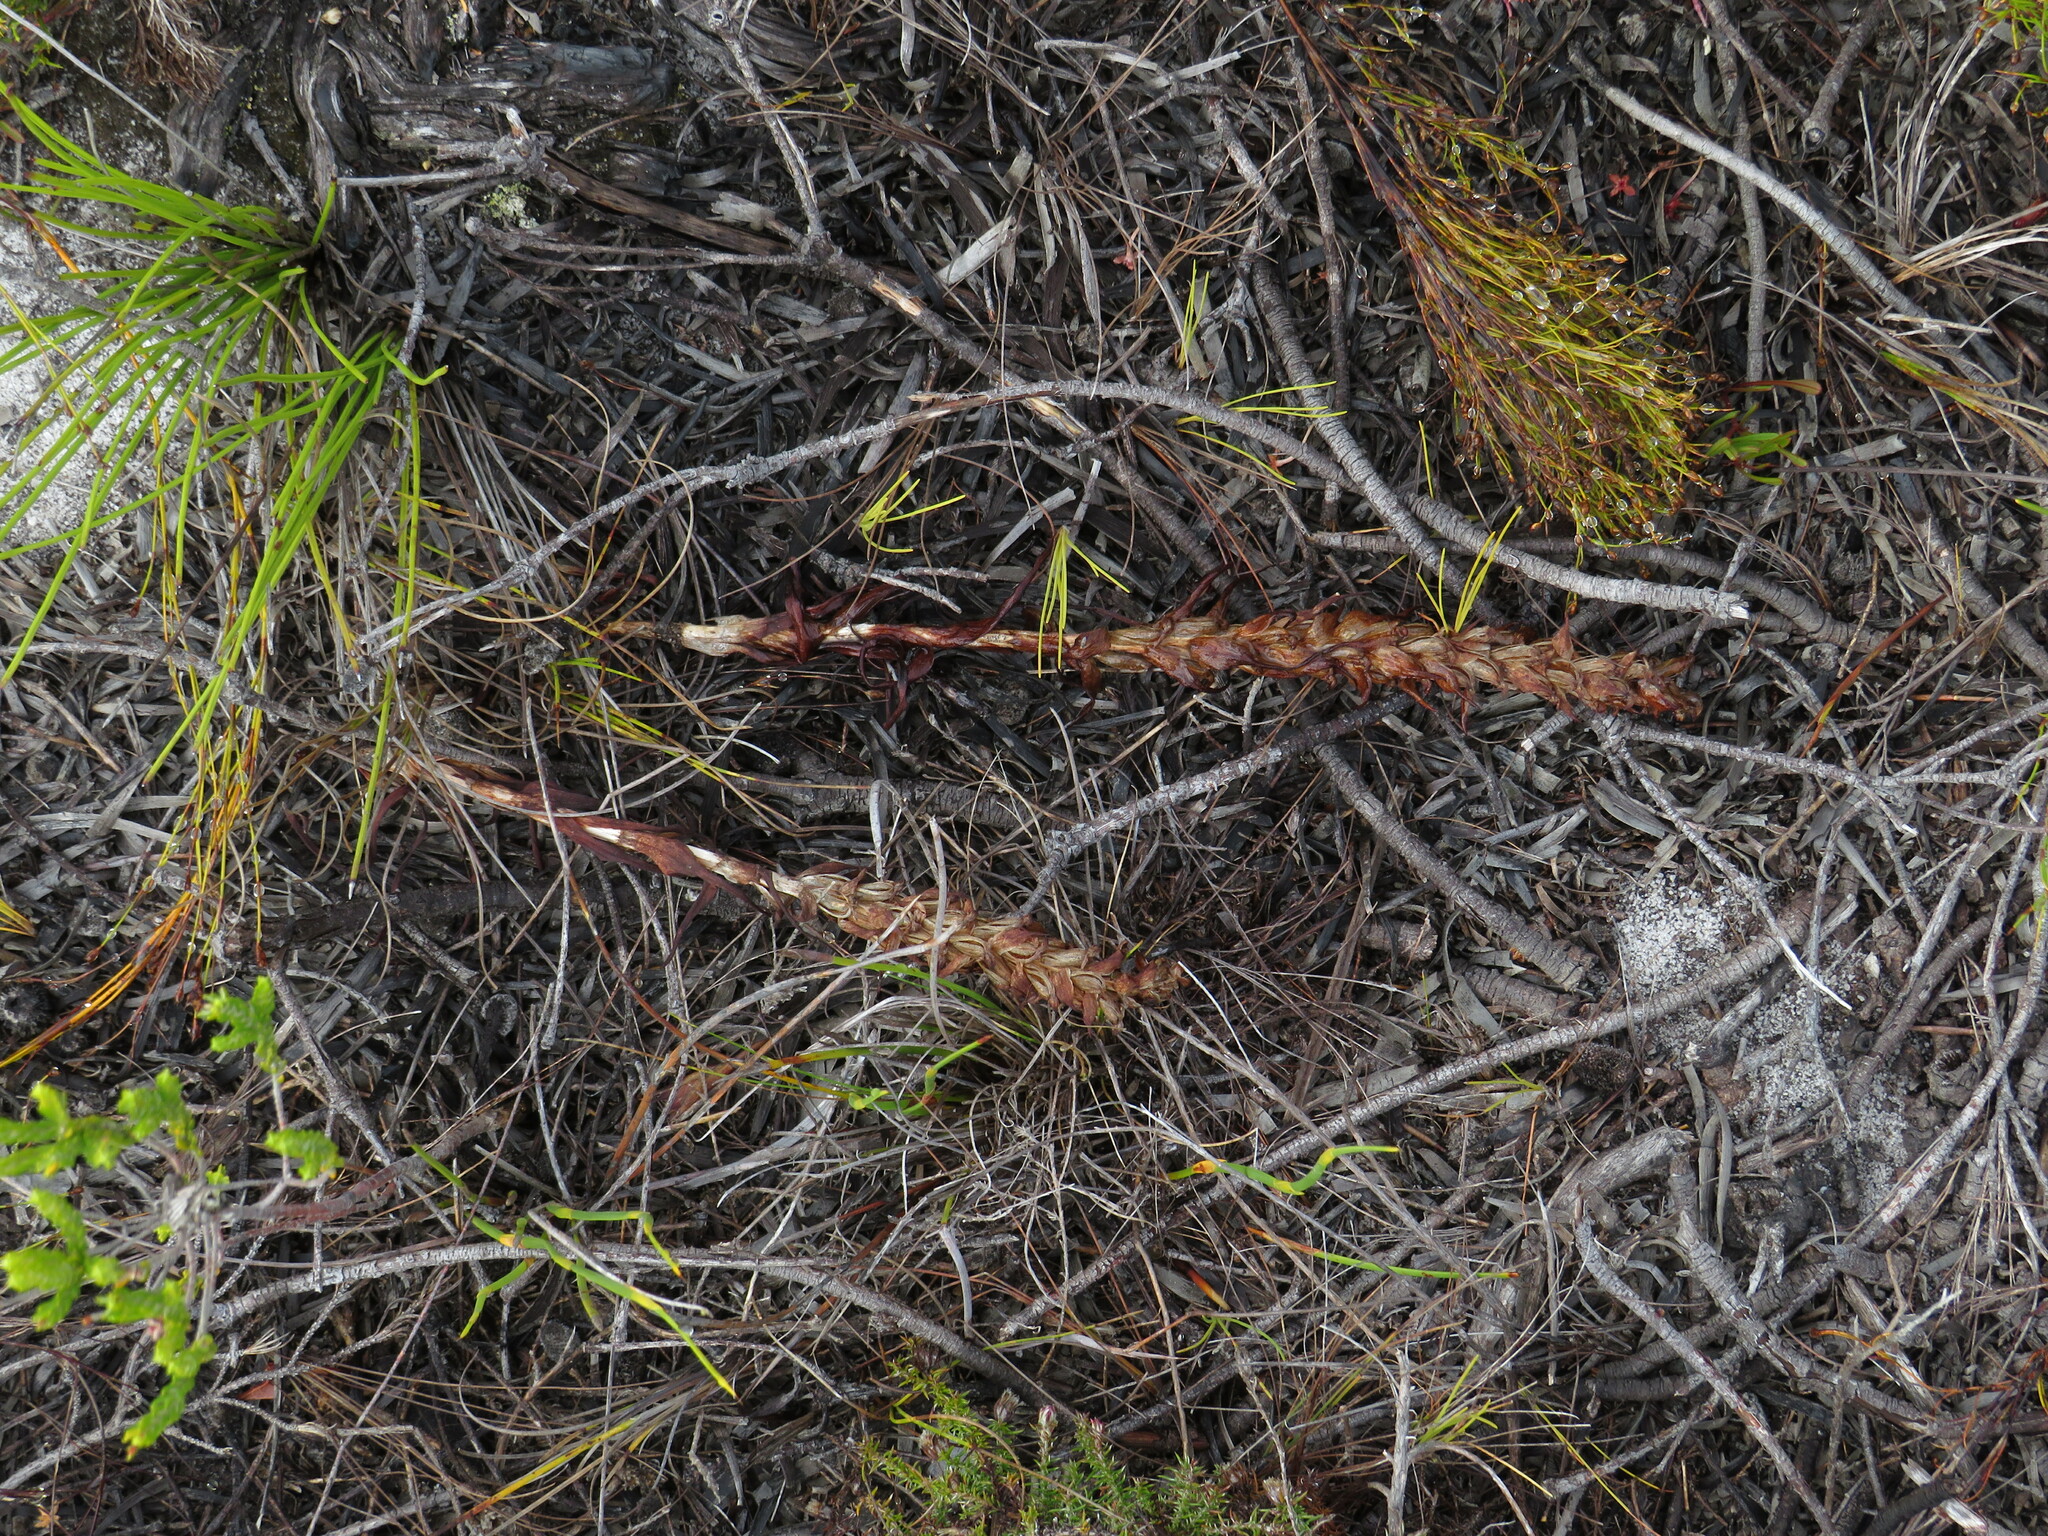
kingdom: Plantae
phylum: Tracheophyta
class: Liliopsida
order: Asparagales
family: Orchidaceae
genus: Disa
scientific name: Disa bracteata
